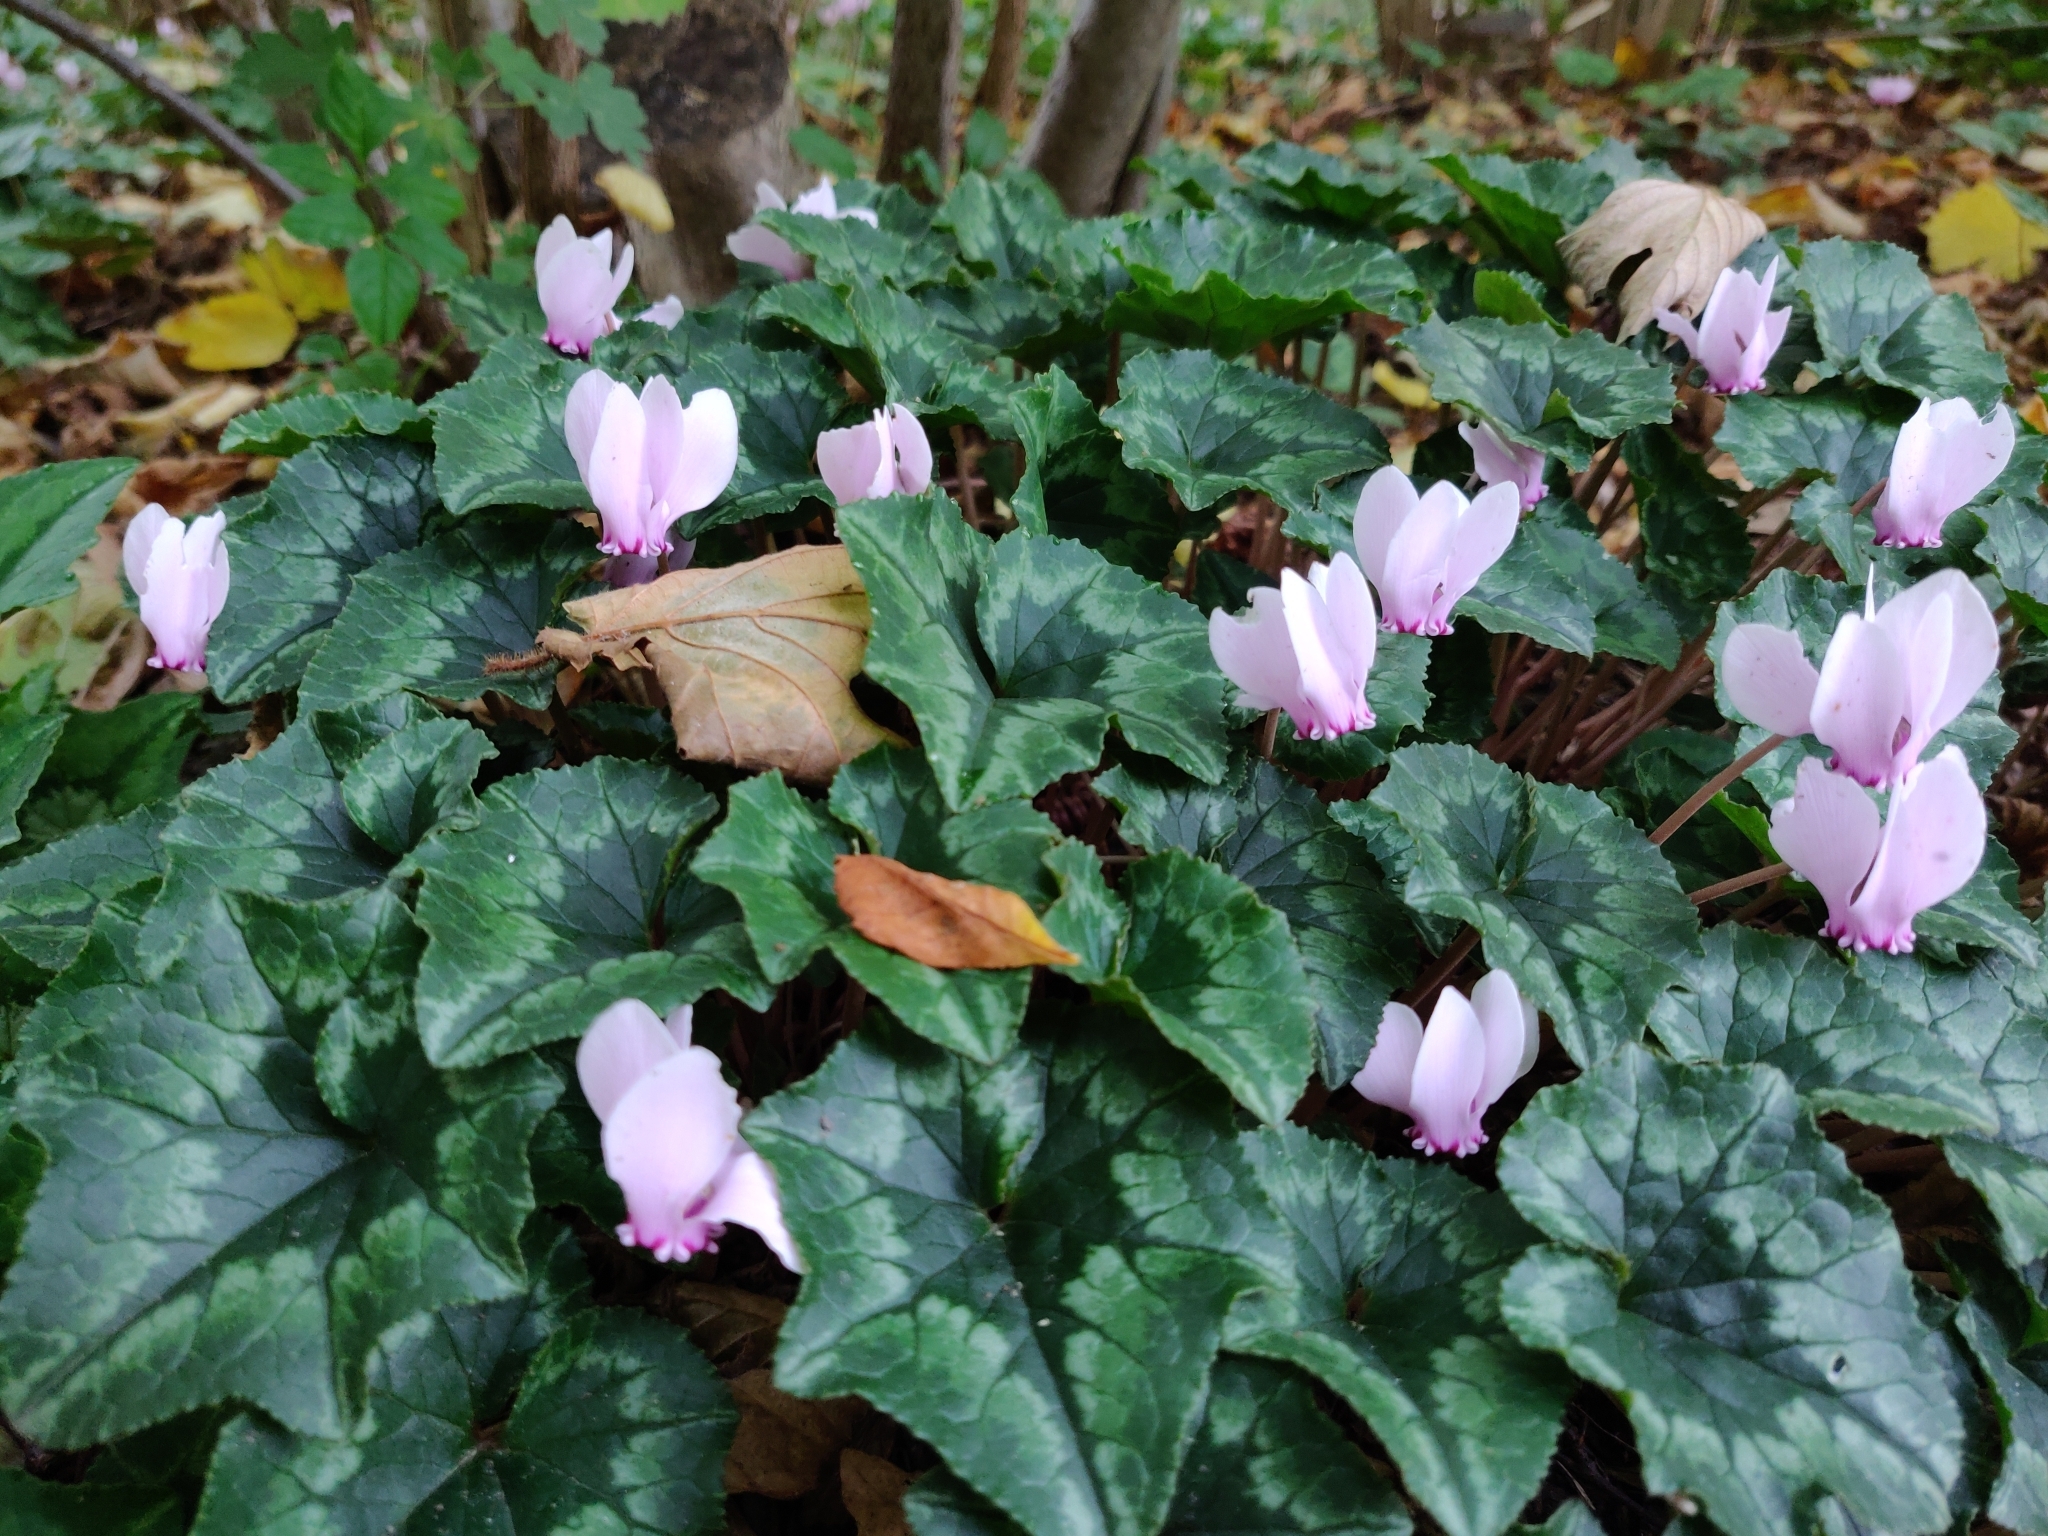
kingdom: Plantae
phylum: Tracheophyta
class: Magnoliopsida
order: Ericales
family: Primulaceae
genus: Cyclamen
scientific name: Cyclamen hederifolium
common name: Sowbread
